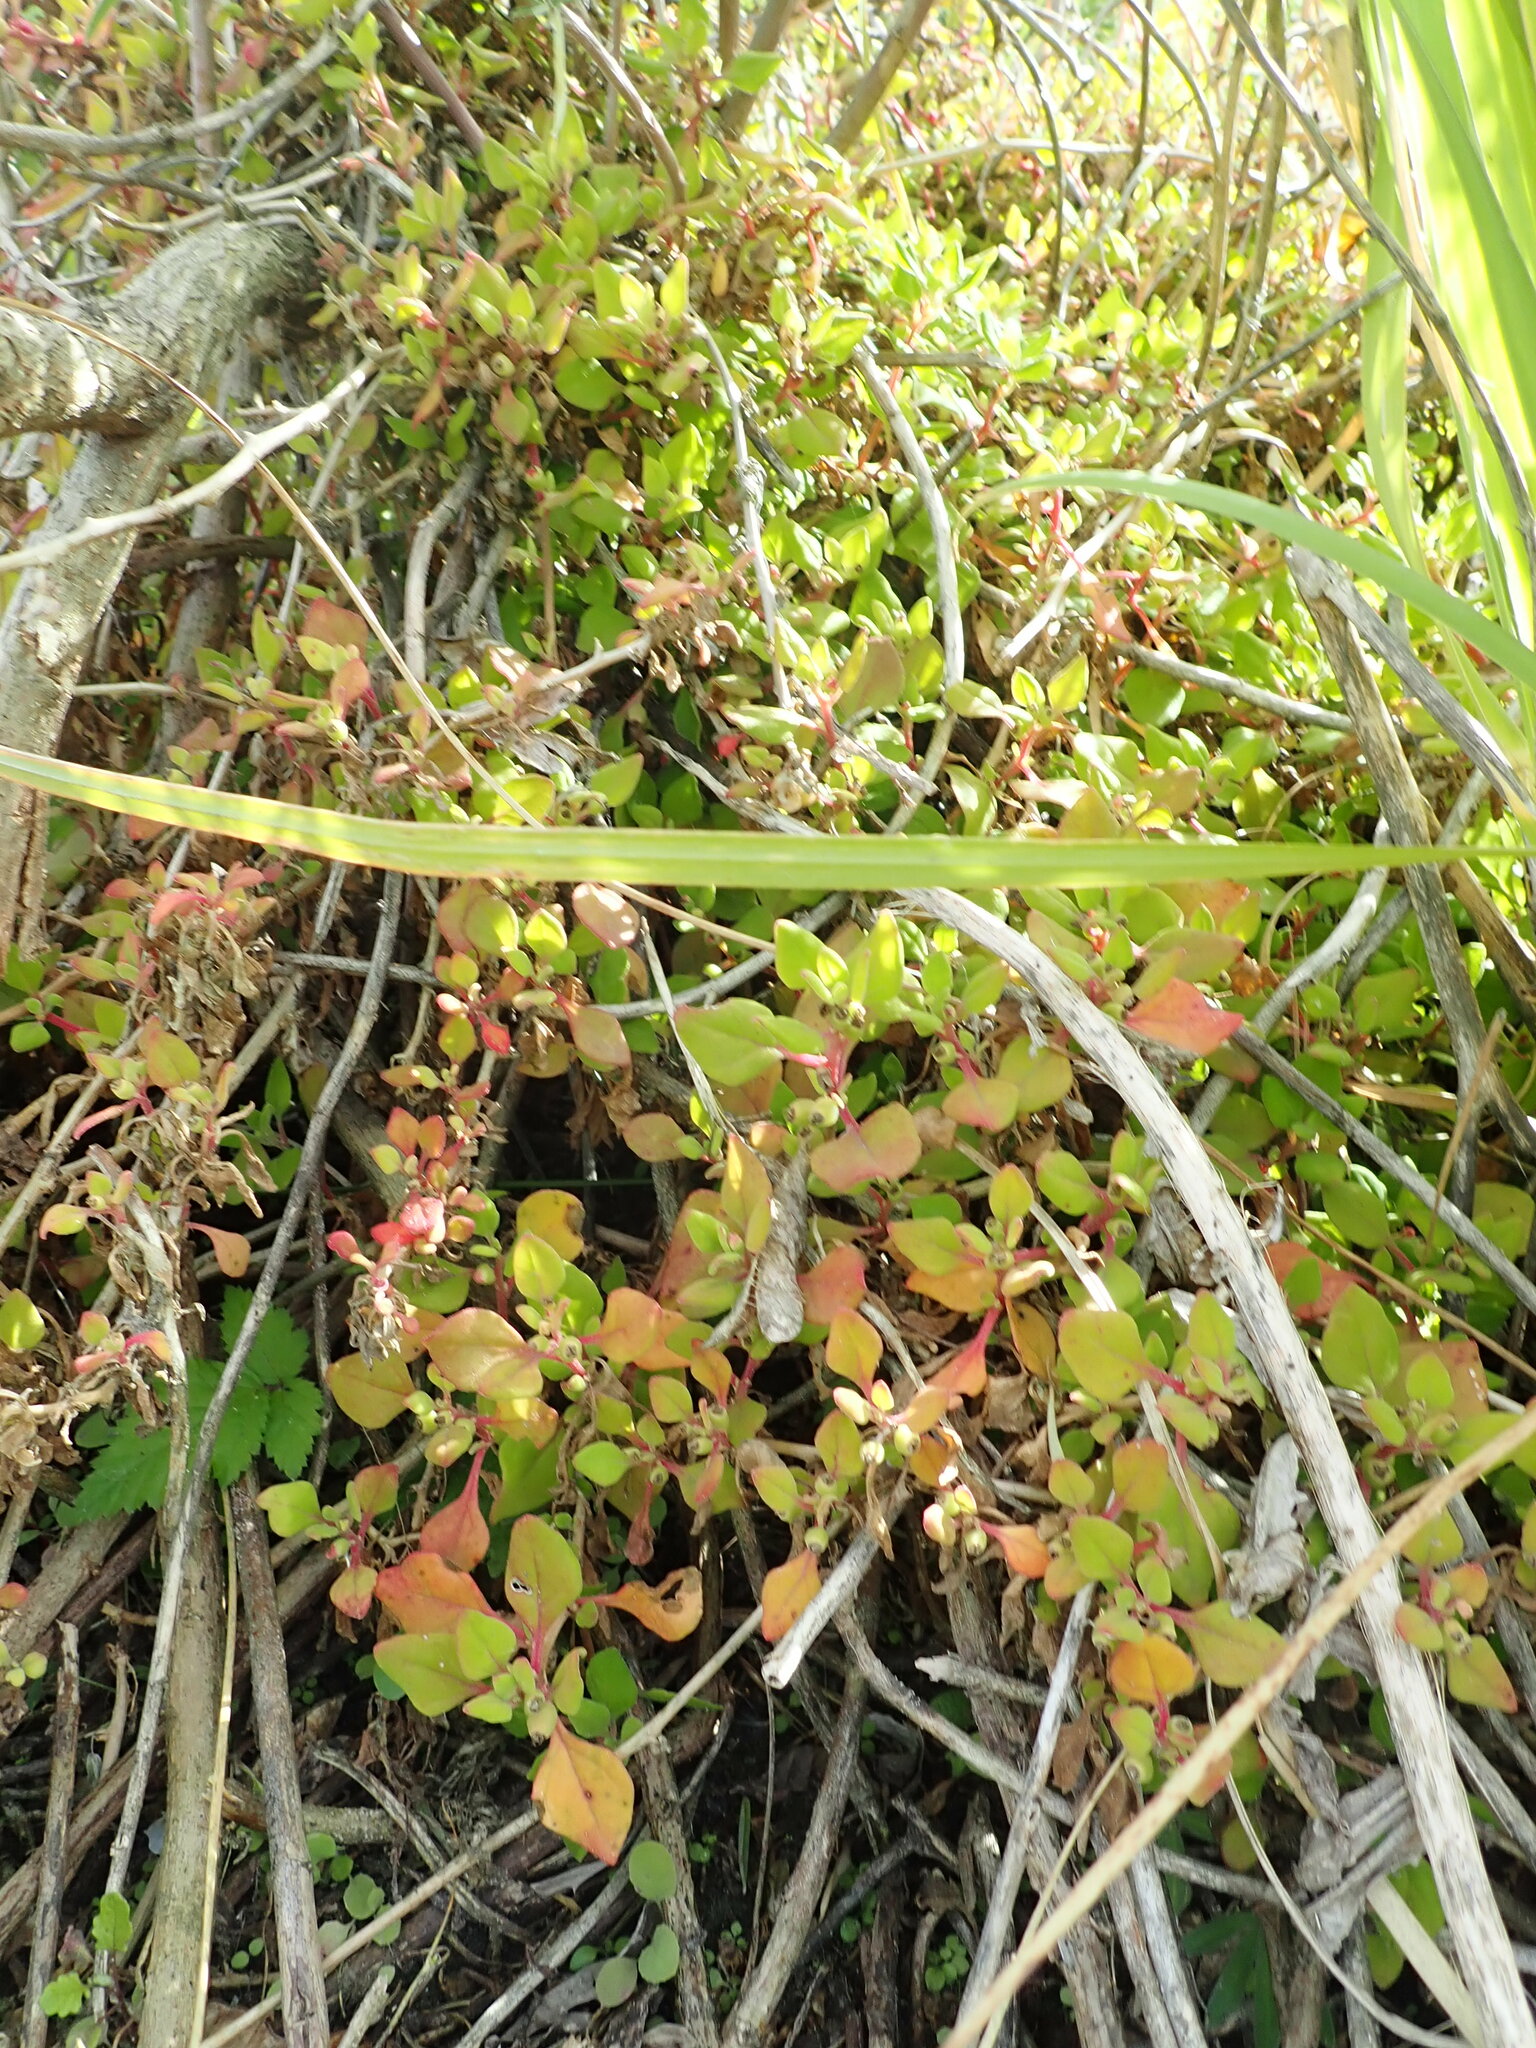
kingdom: Plantae
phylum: Tracheophyta
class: Magnoliopsida
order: Caryophyllales
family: Aizoaceae
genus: Tetragonia
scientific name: Tetragonia implexicoma
